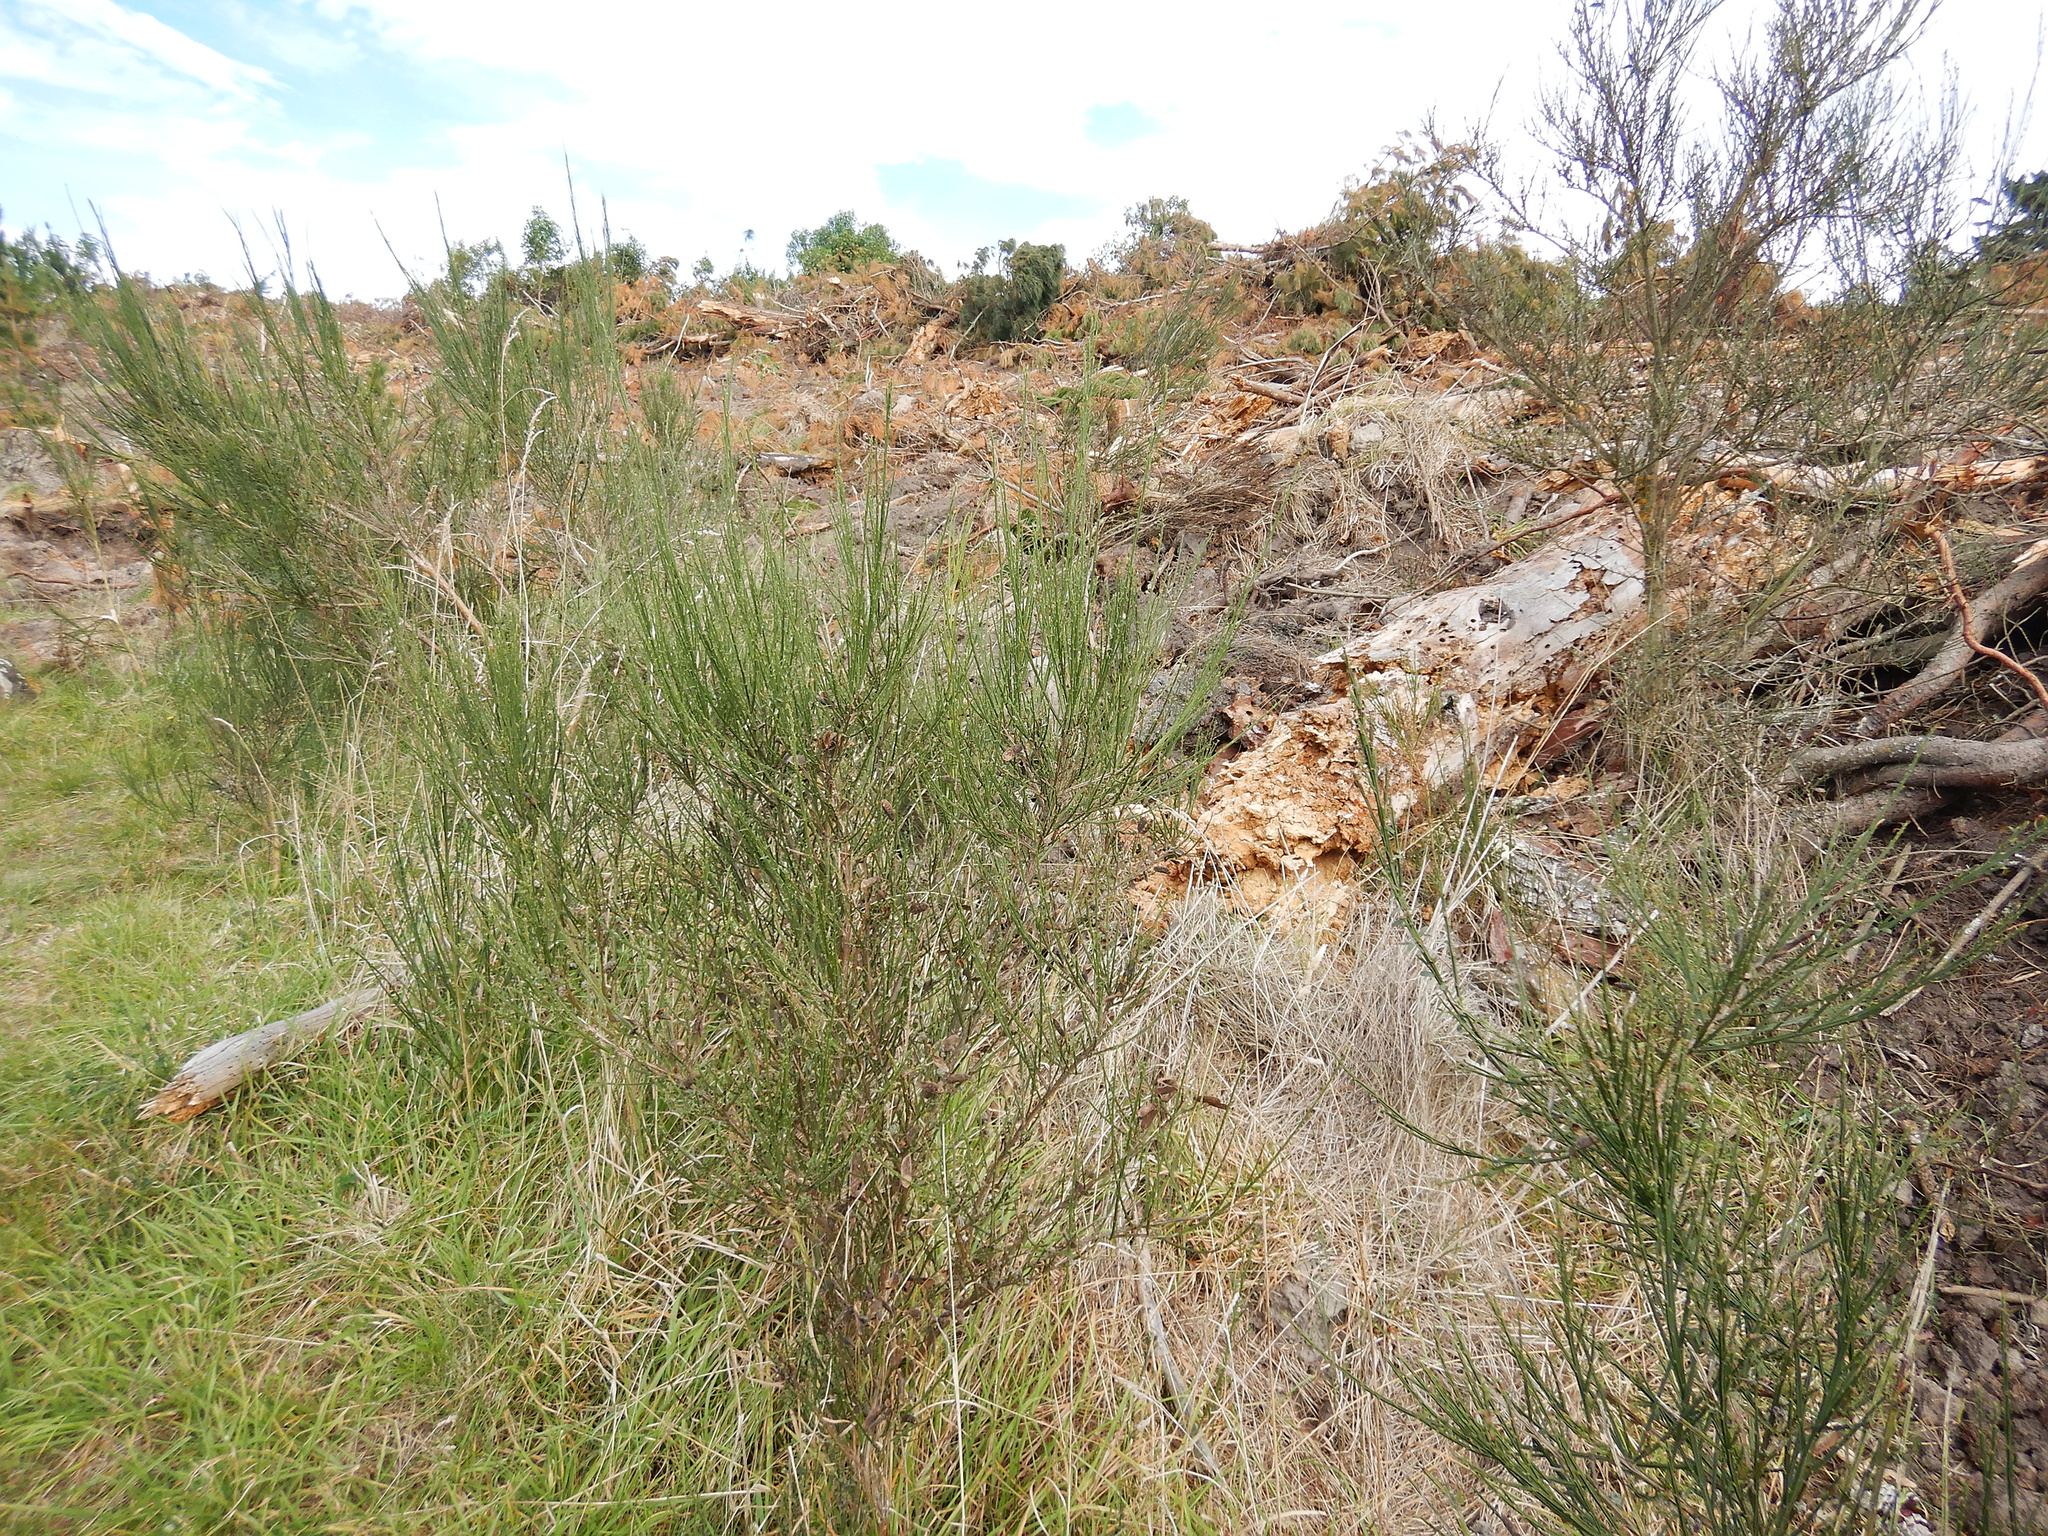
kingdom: Plantae
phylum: Tracheophyta
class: Magnoliopsida
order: Fabales
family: Fabaceae
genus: Cytisus
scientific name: Cytisus scoparius
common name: Scotch broom
